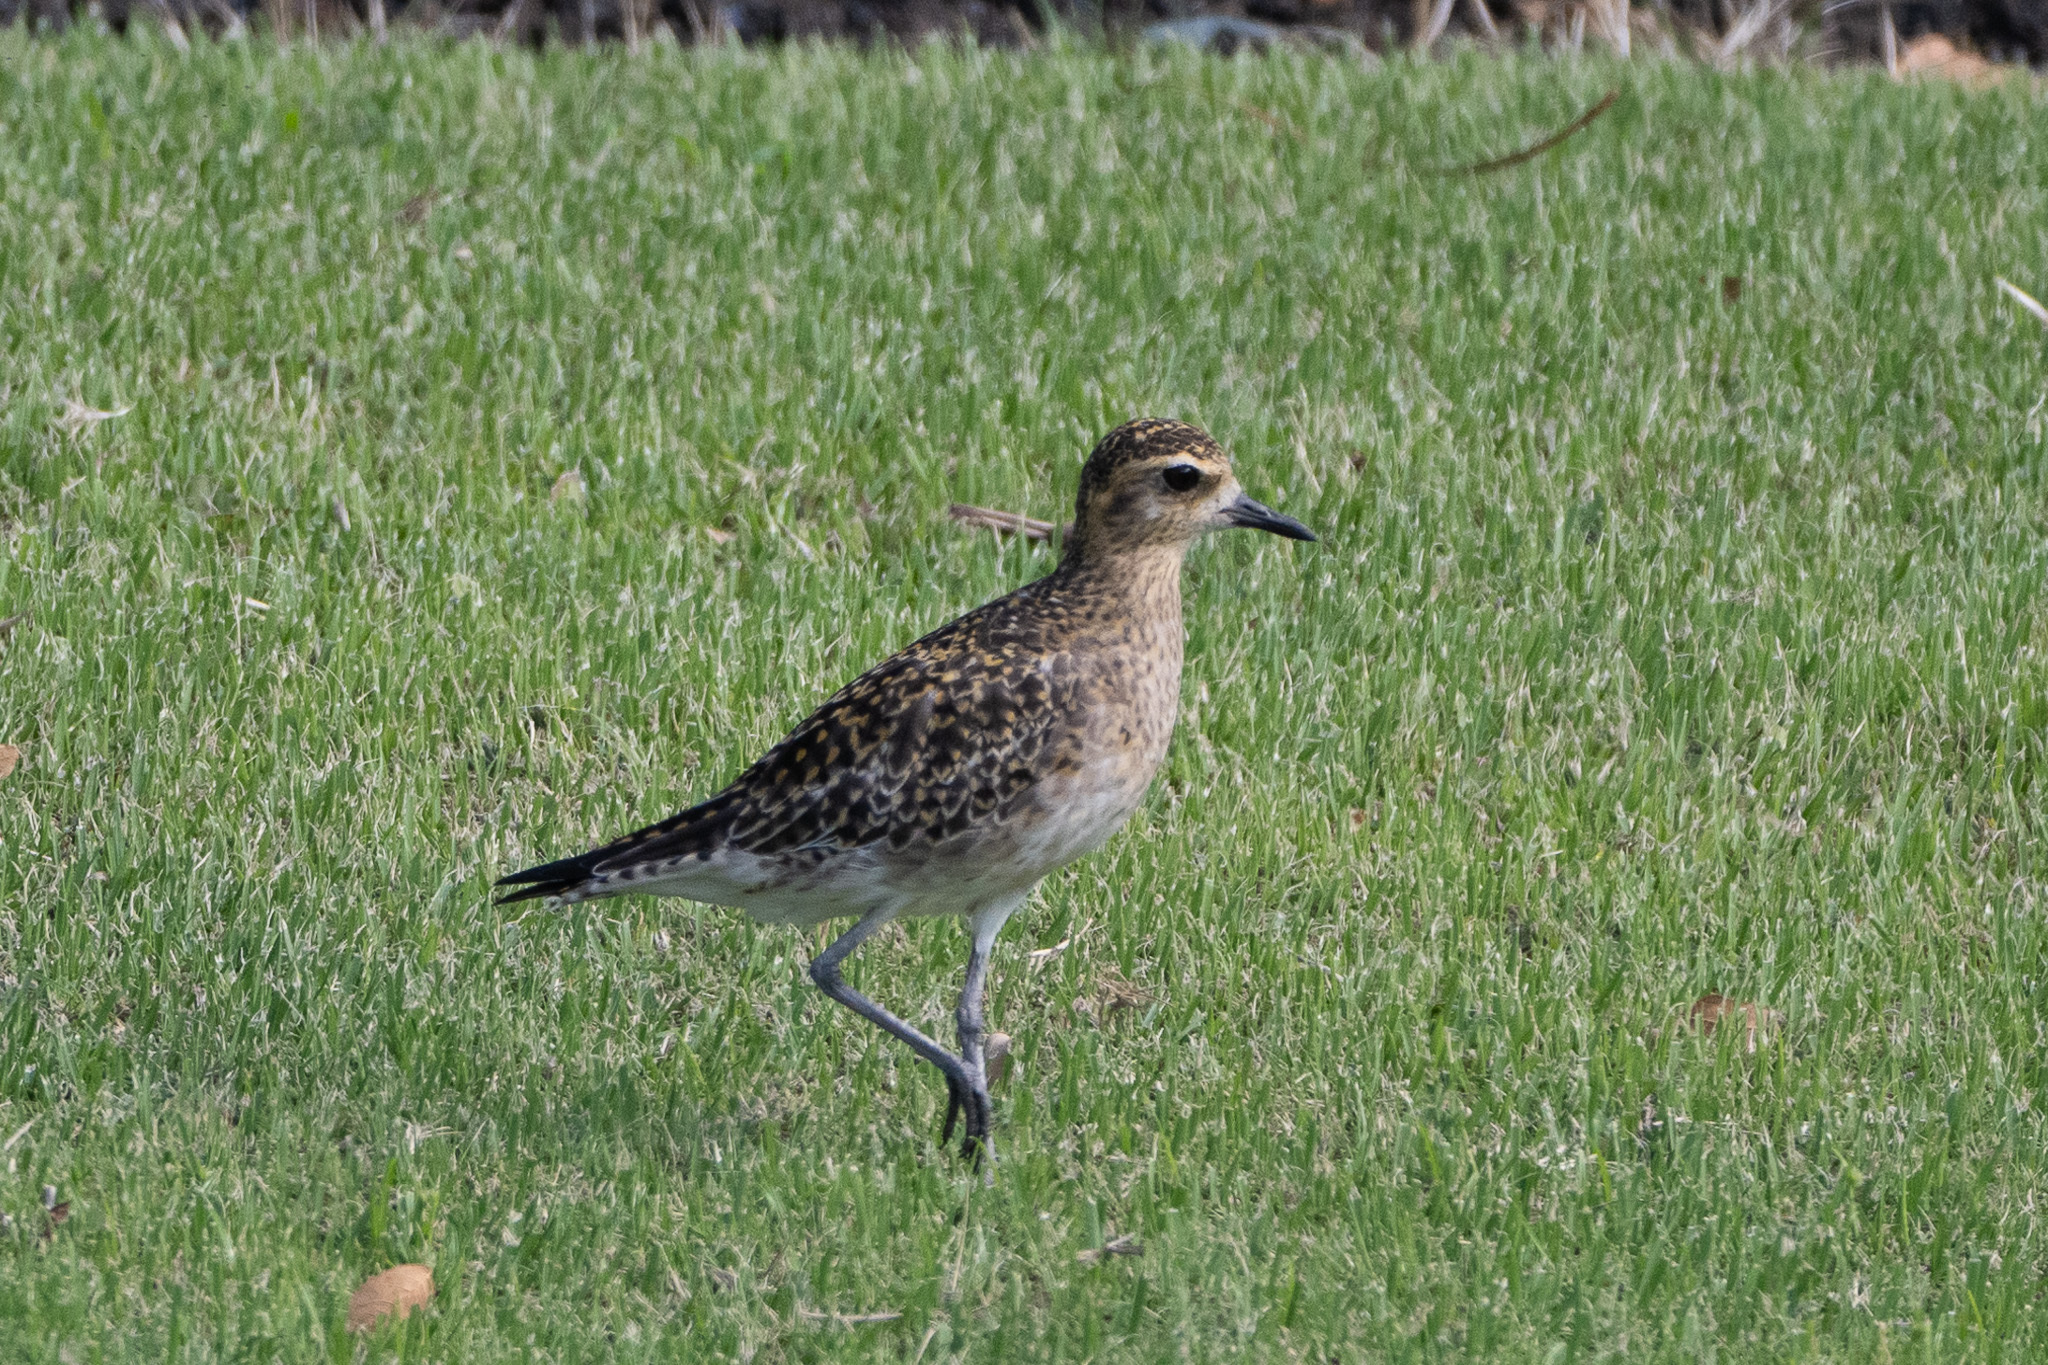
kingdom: Animalia
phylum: Chordata
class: Aves
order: Charadriiformes
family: Charadriidae
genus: Pluvialis
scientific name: Pluvialis fulva
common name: Pacific golden plover
